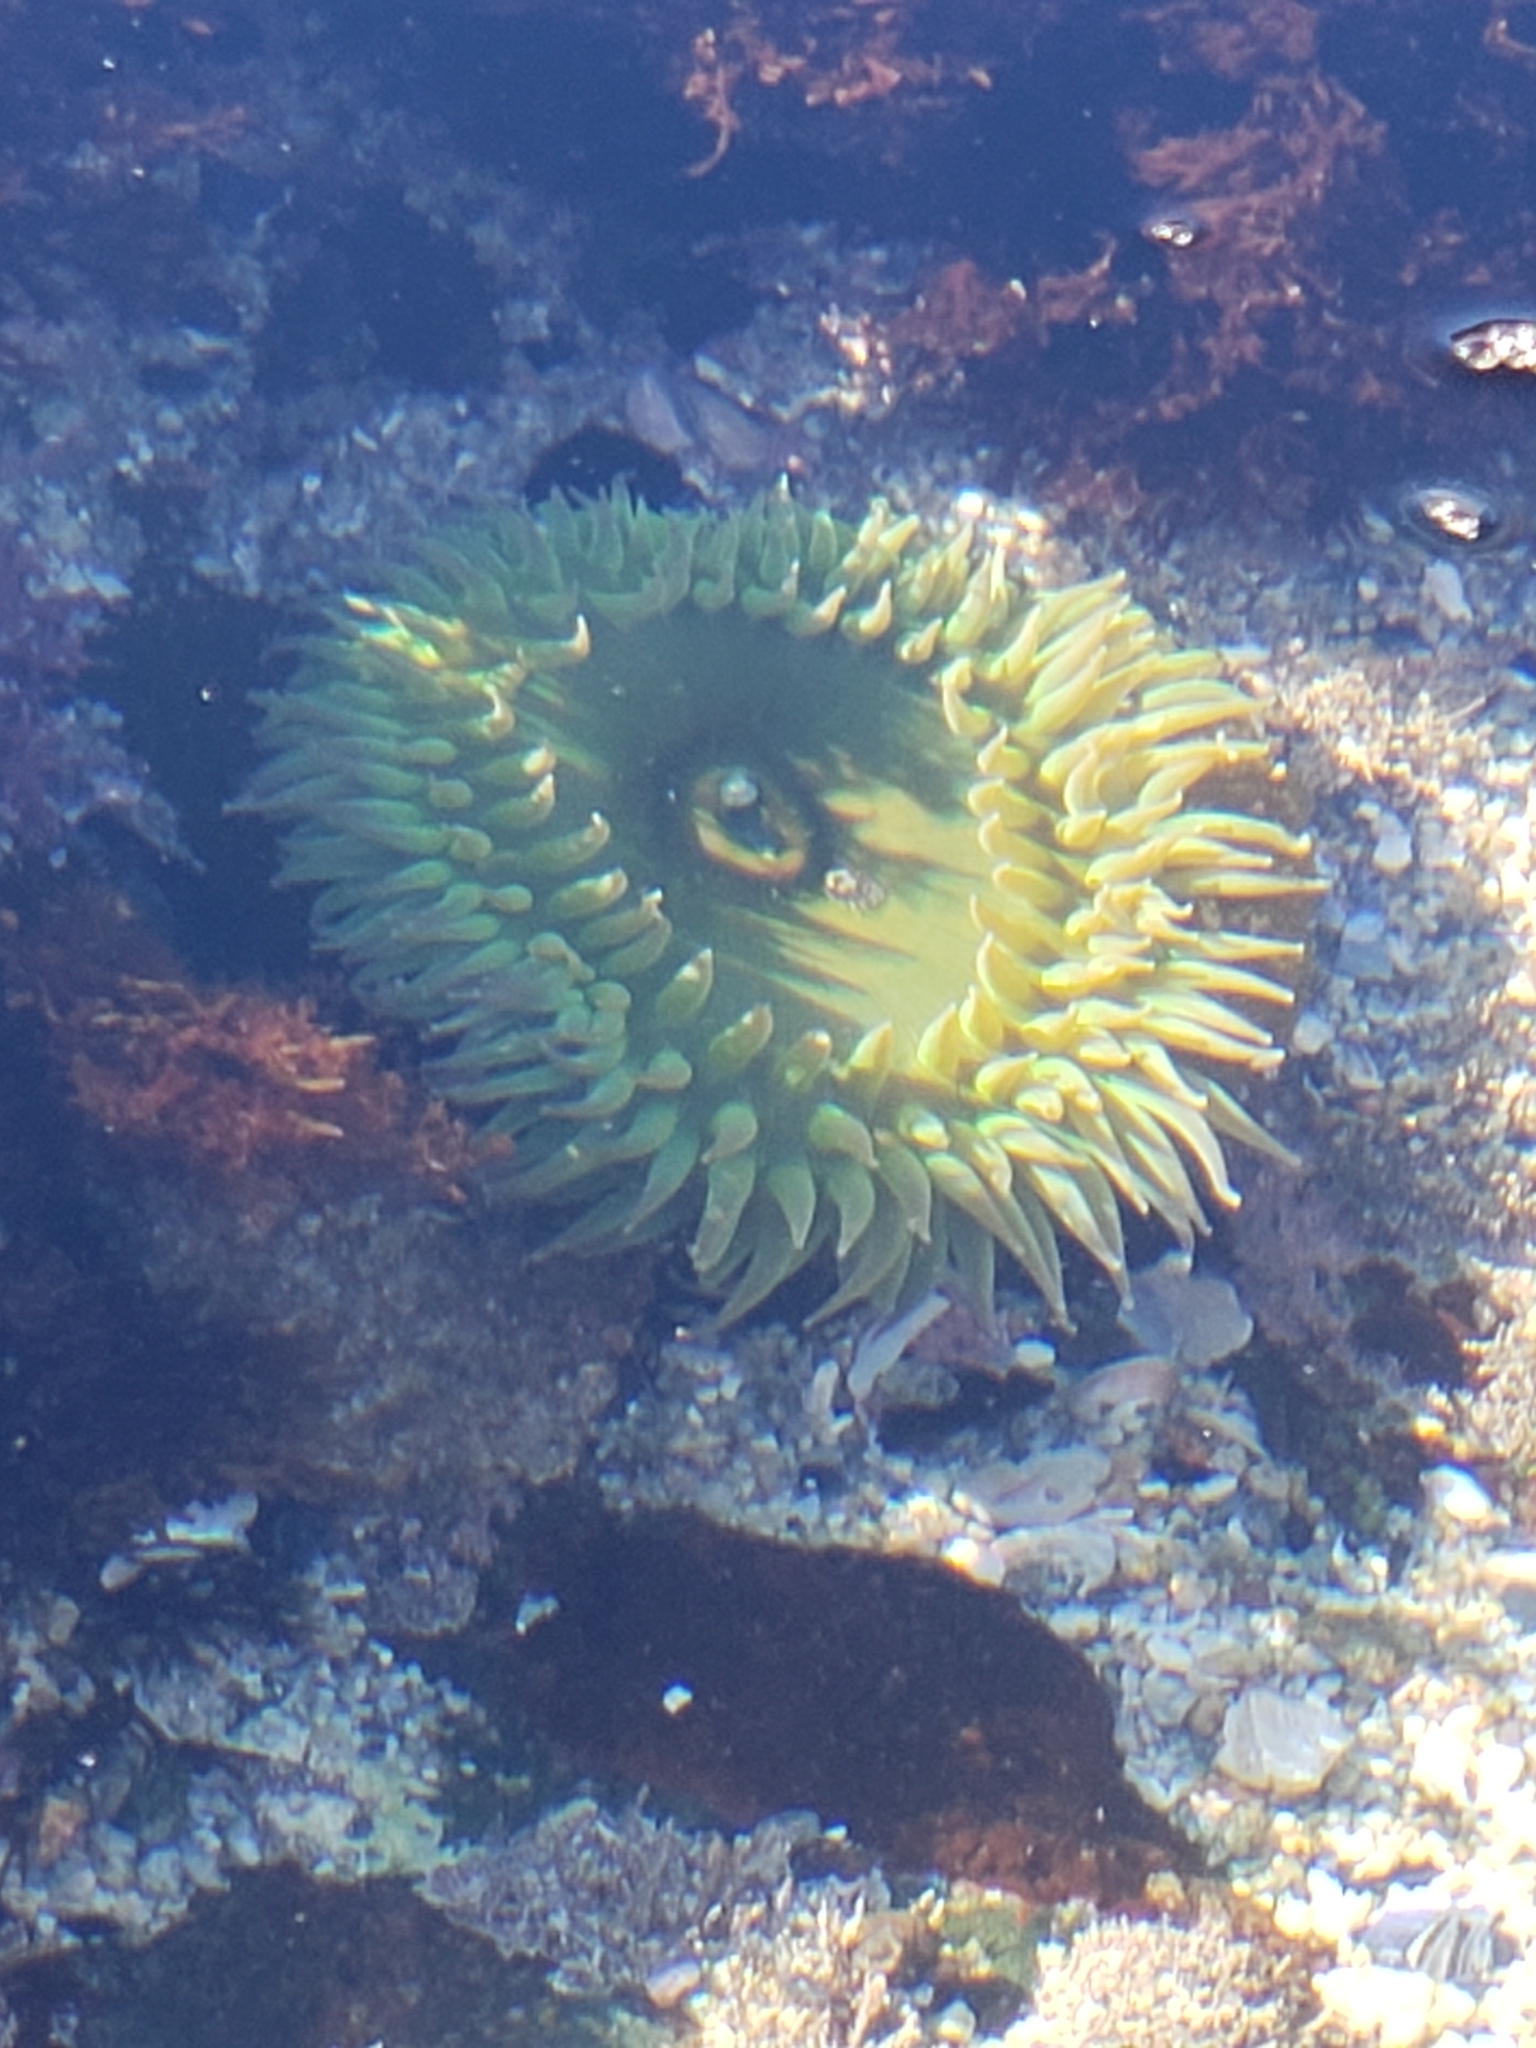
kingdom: Animalia
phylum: Cnidaria
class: Anthozoa
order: Actiniaria
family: Actiniidae
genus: Anthopleura
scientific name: Anthopleura xanthogrammica
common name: Giant green anemone
